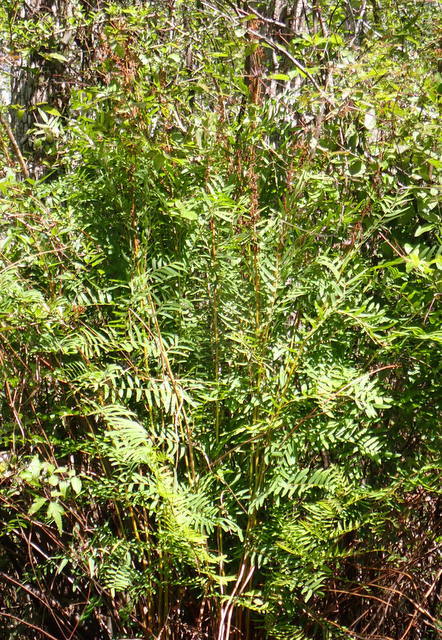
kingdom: Plantae
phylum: Tracheophyta
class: Polypodiopsida
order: Osmundales
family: Osmundaceae
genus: Osmunda
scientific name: Osmunda spectabilis
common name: American royal fern
